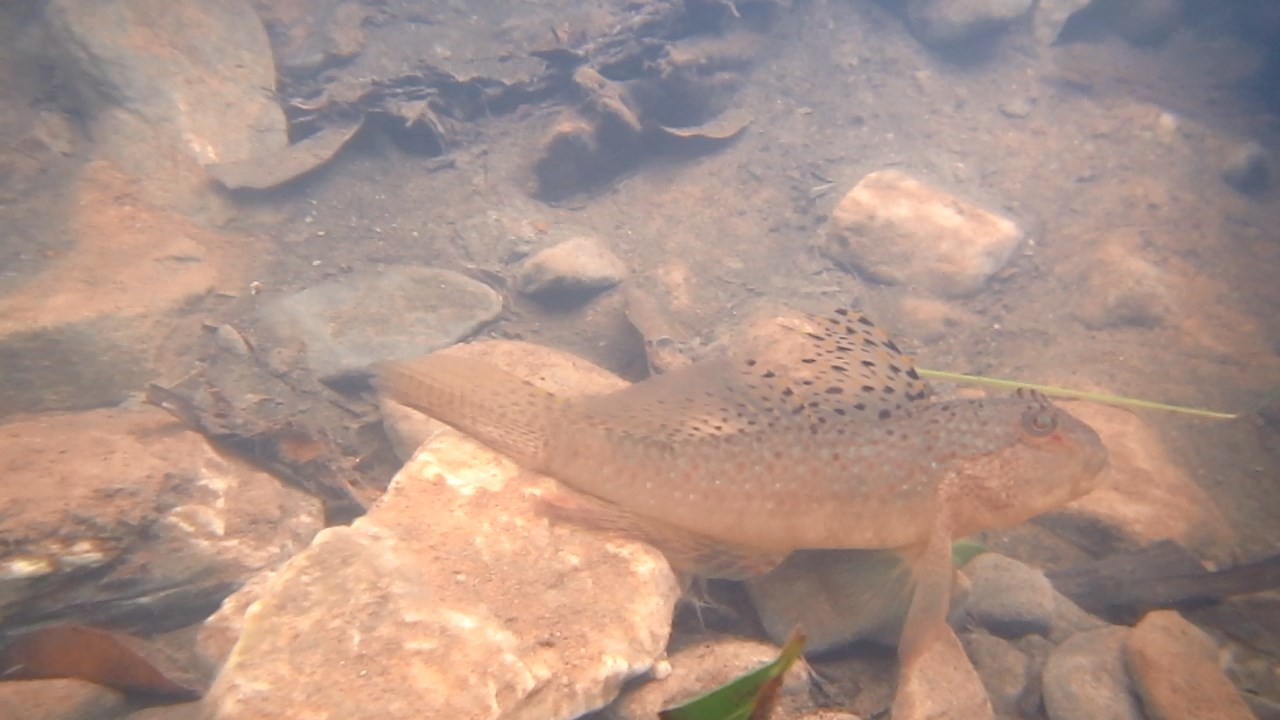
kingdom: Animalia
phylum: Chordata
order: Perciformes
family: Gobiidae
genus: Exyrias
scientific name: Exyrias puntang
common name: Puntang goby
